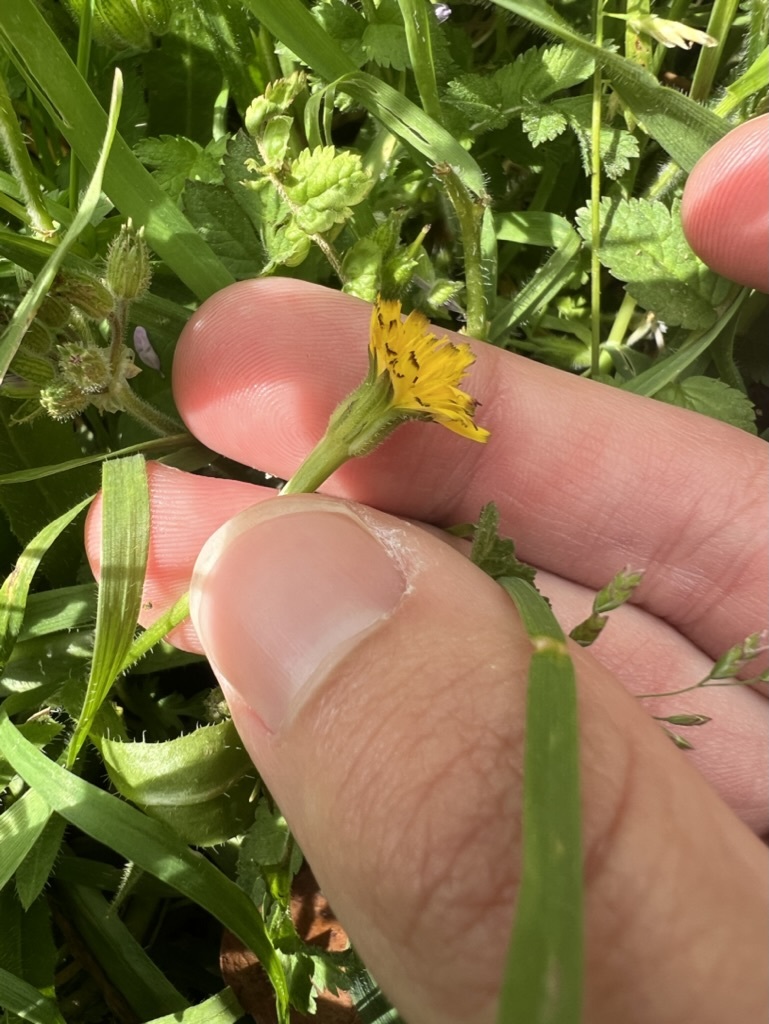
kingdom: Plantae
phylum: Tracheophyta
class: Magnoliopsida
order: Asterales
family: Asteraceae
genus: Hedypnois
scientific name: Hedypnois rhagadioloides
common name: Cretan weed
